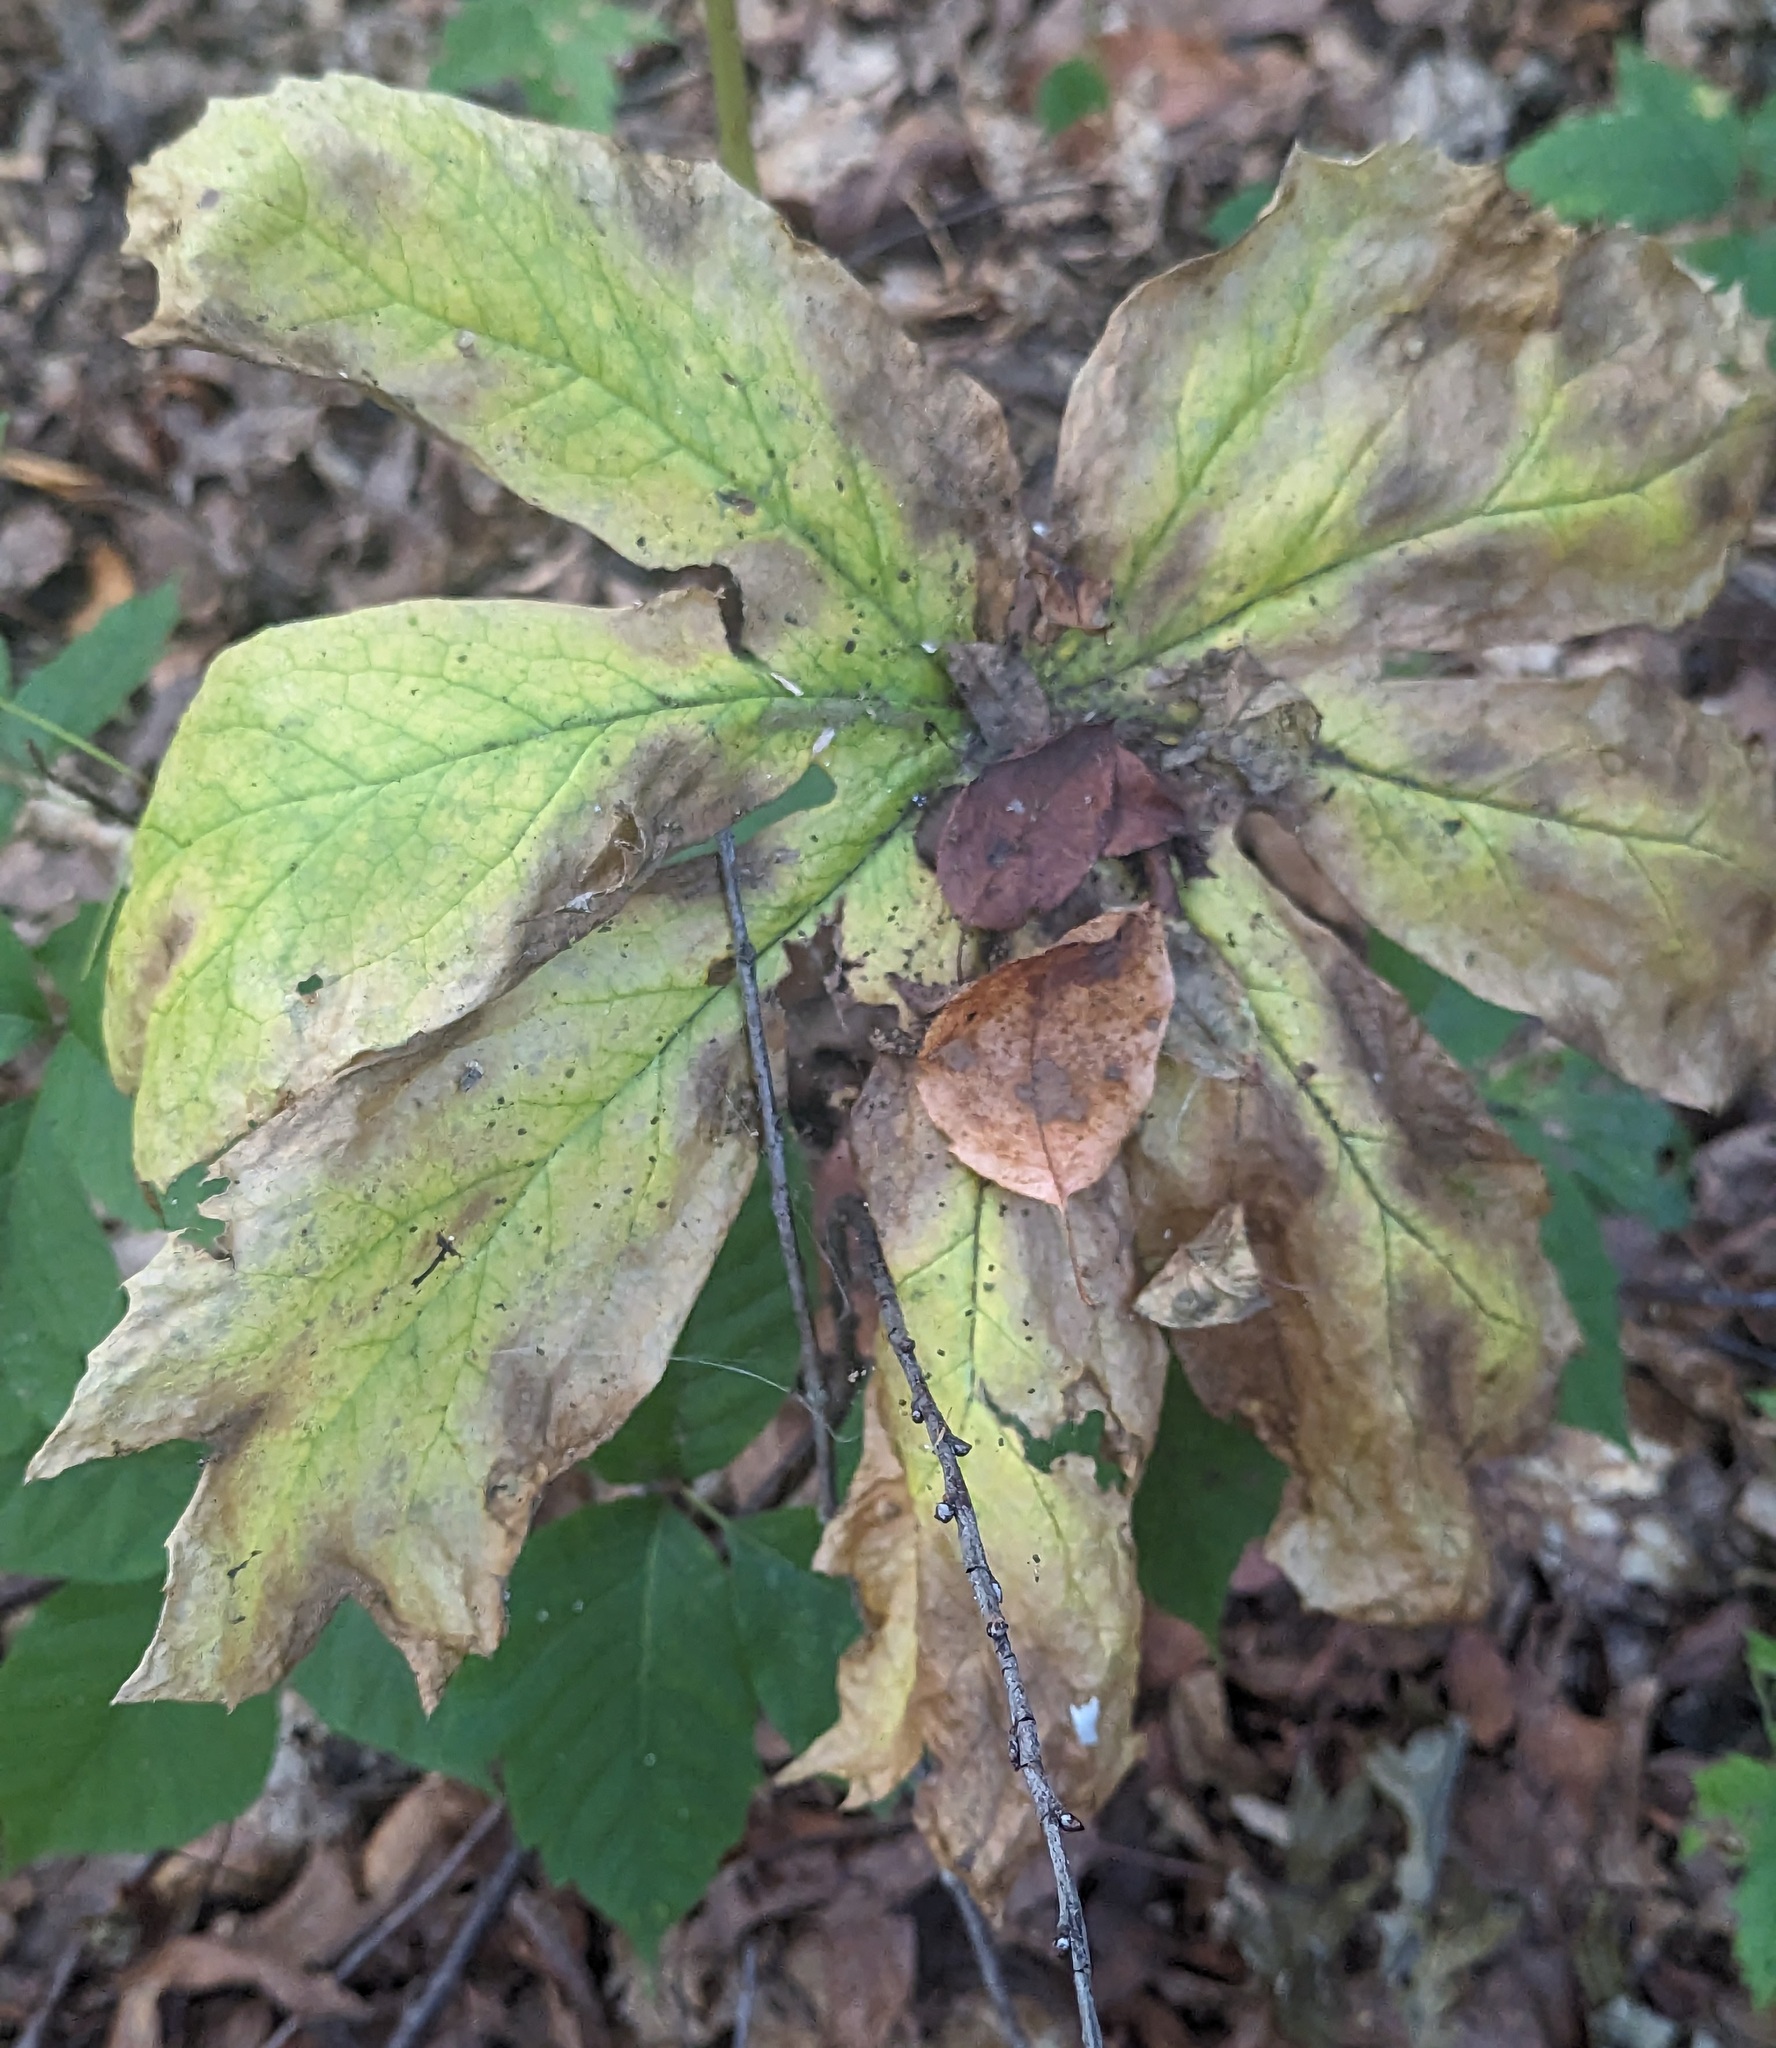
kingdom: Plantae
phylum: Tracheophyta
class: Magnoliopsida
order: Ranunculales
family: Berberidaceae
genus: Podophyllum
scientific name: Podophyllum peltatum
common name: Wild mandrake
